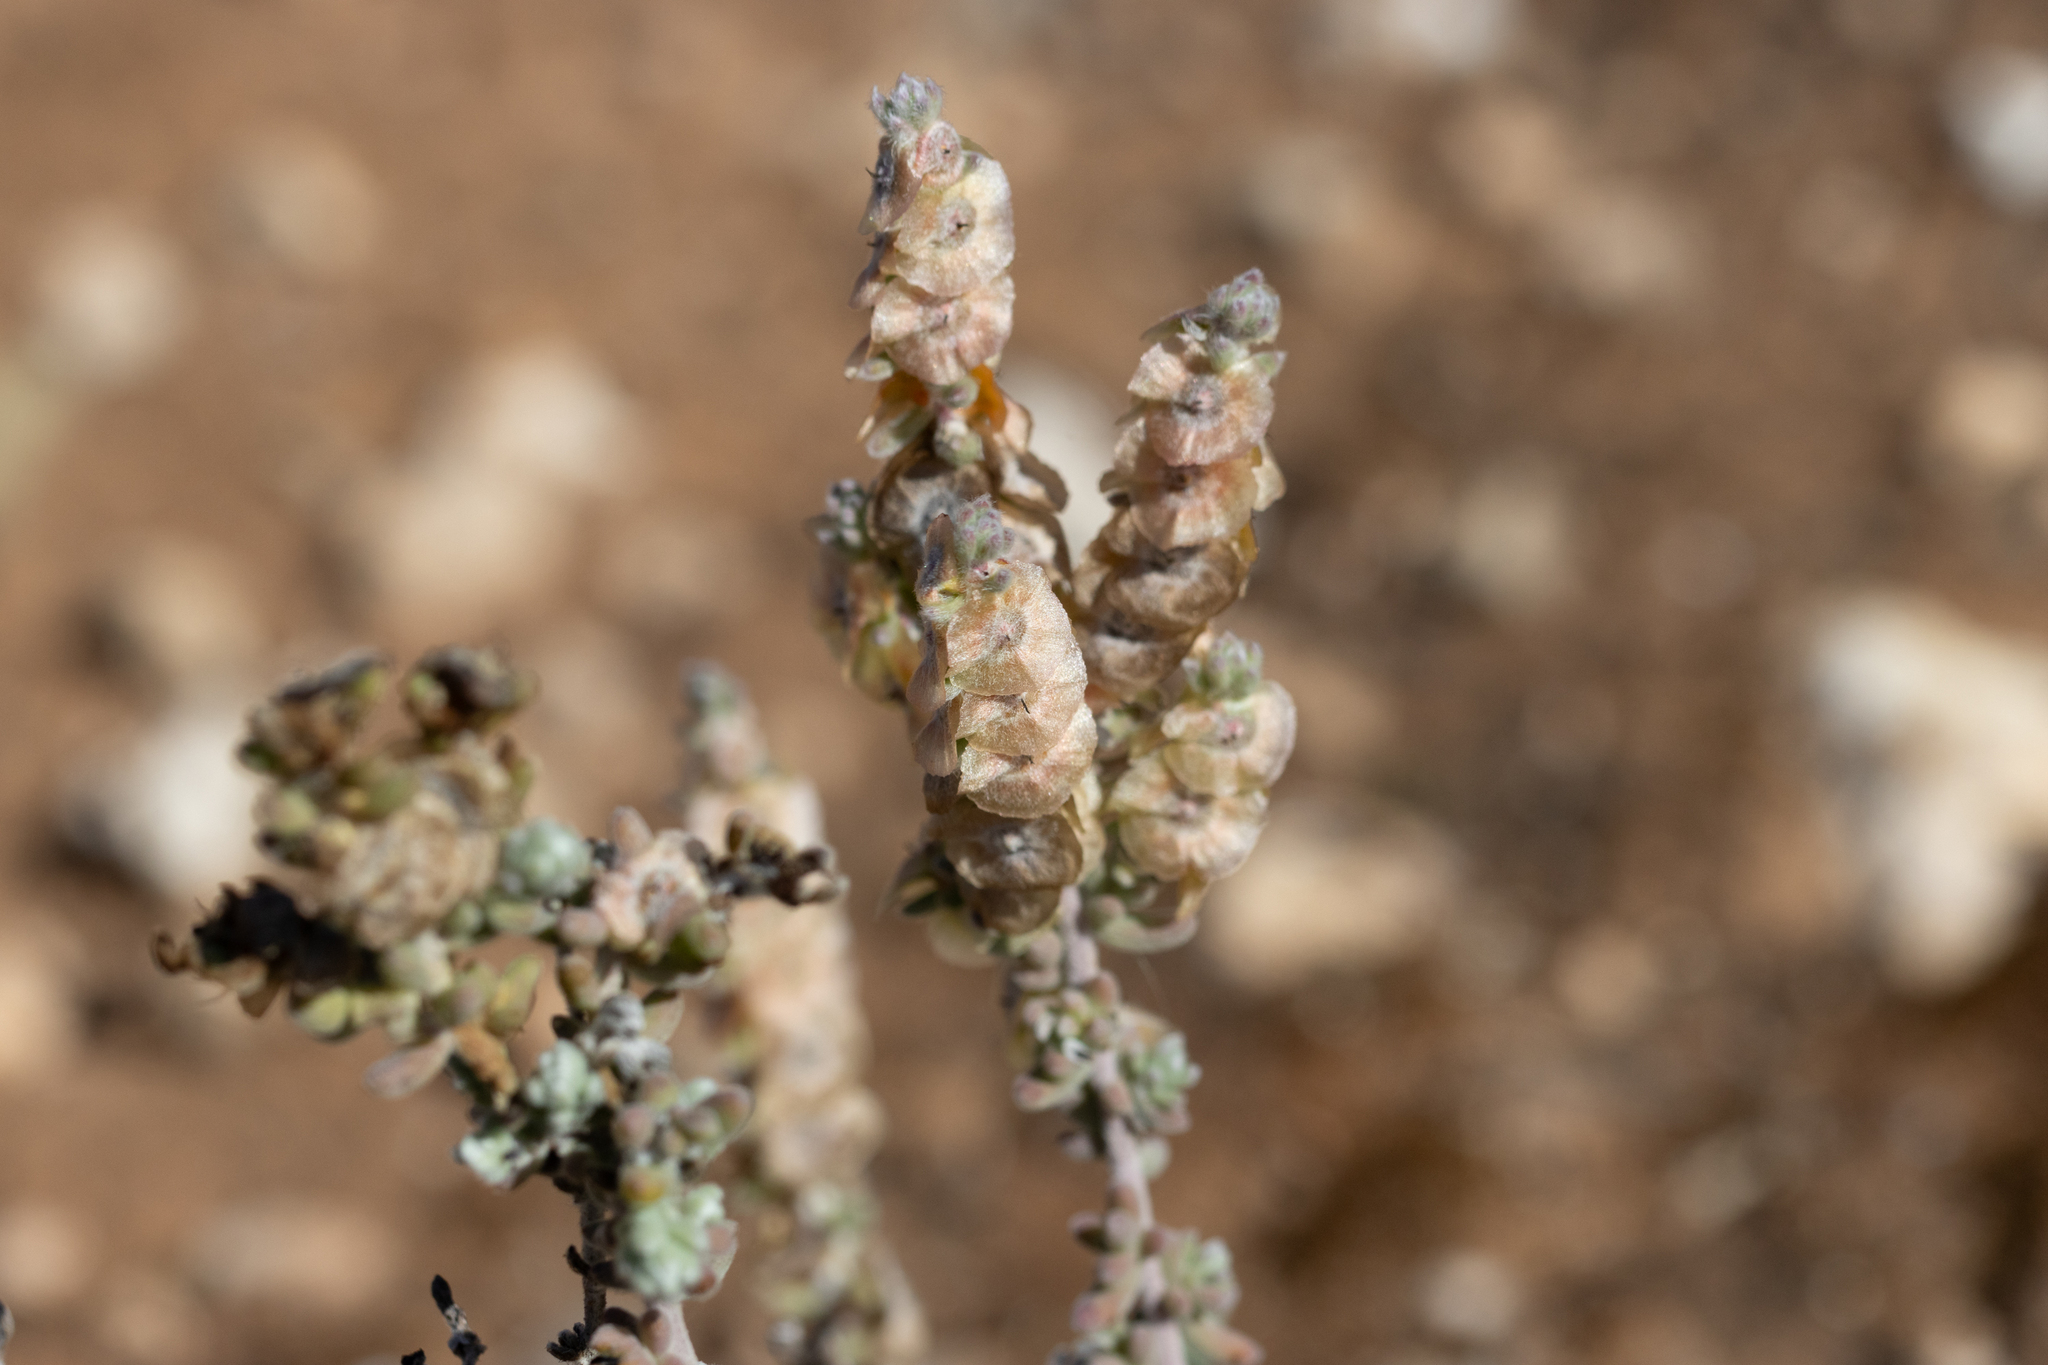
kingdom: Plantae
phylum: Tracheophyta
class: Magnoliopsida
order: Caryophyllales
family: Amaranthaceae
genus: Maireana
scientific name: Maireana trichoptera
